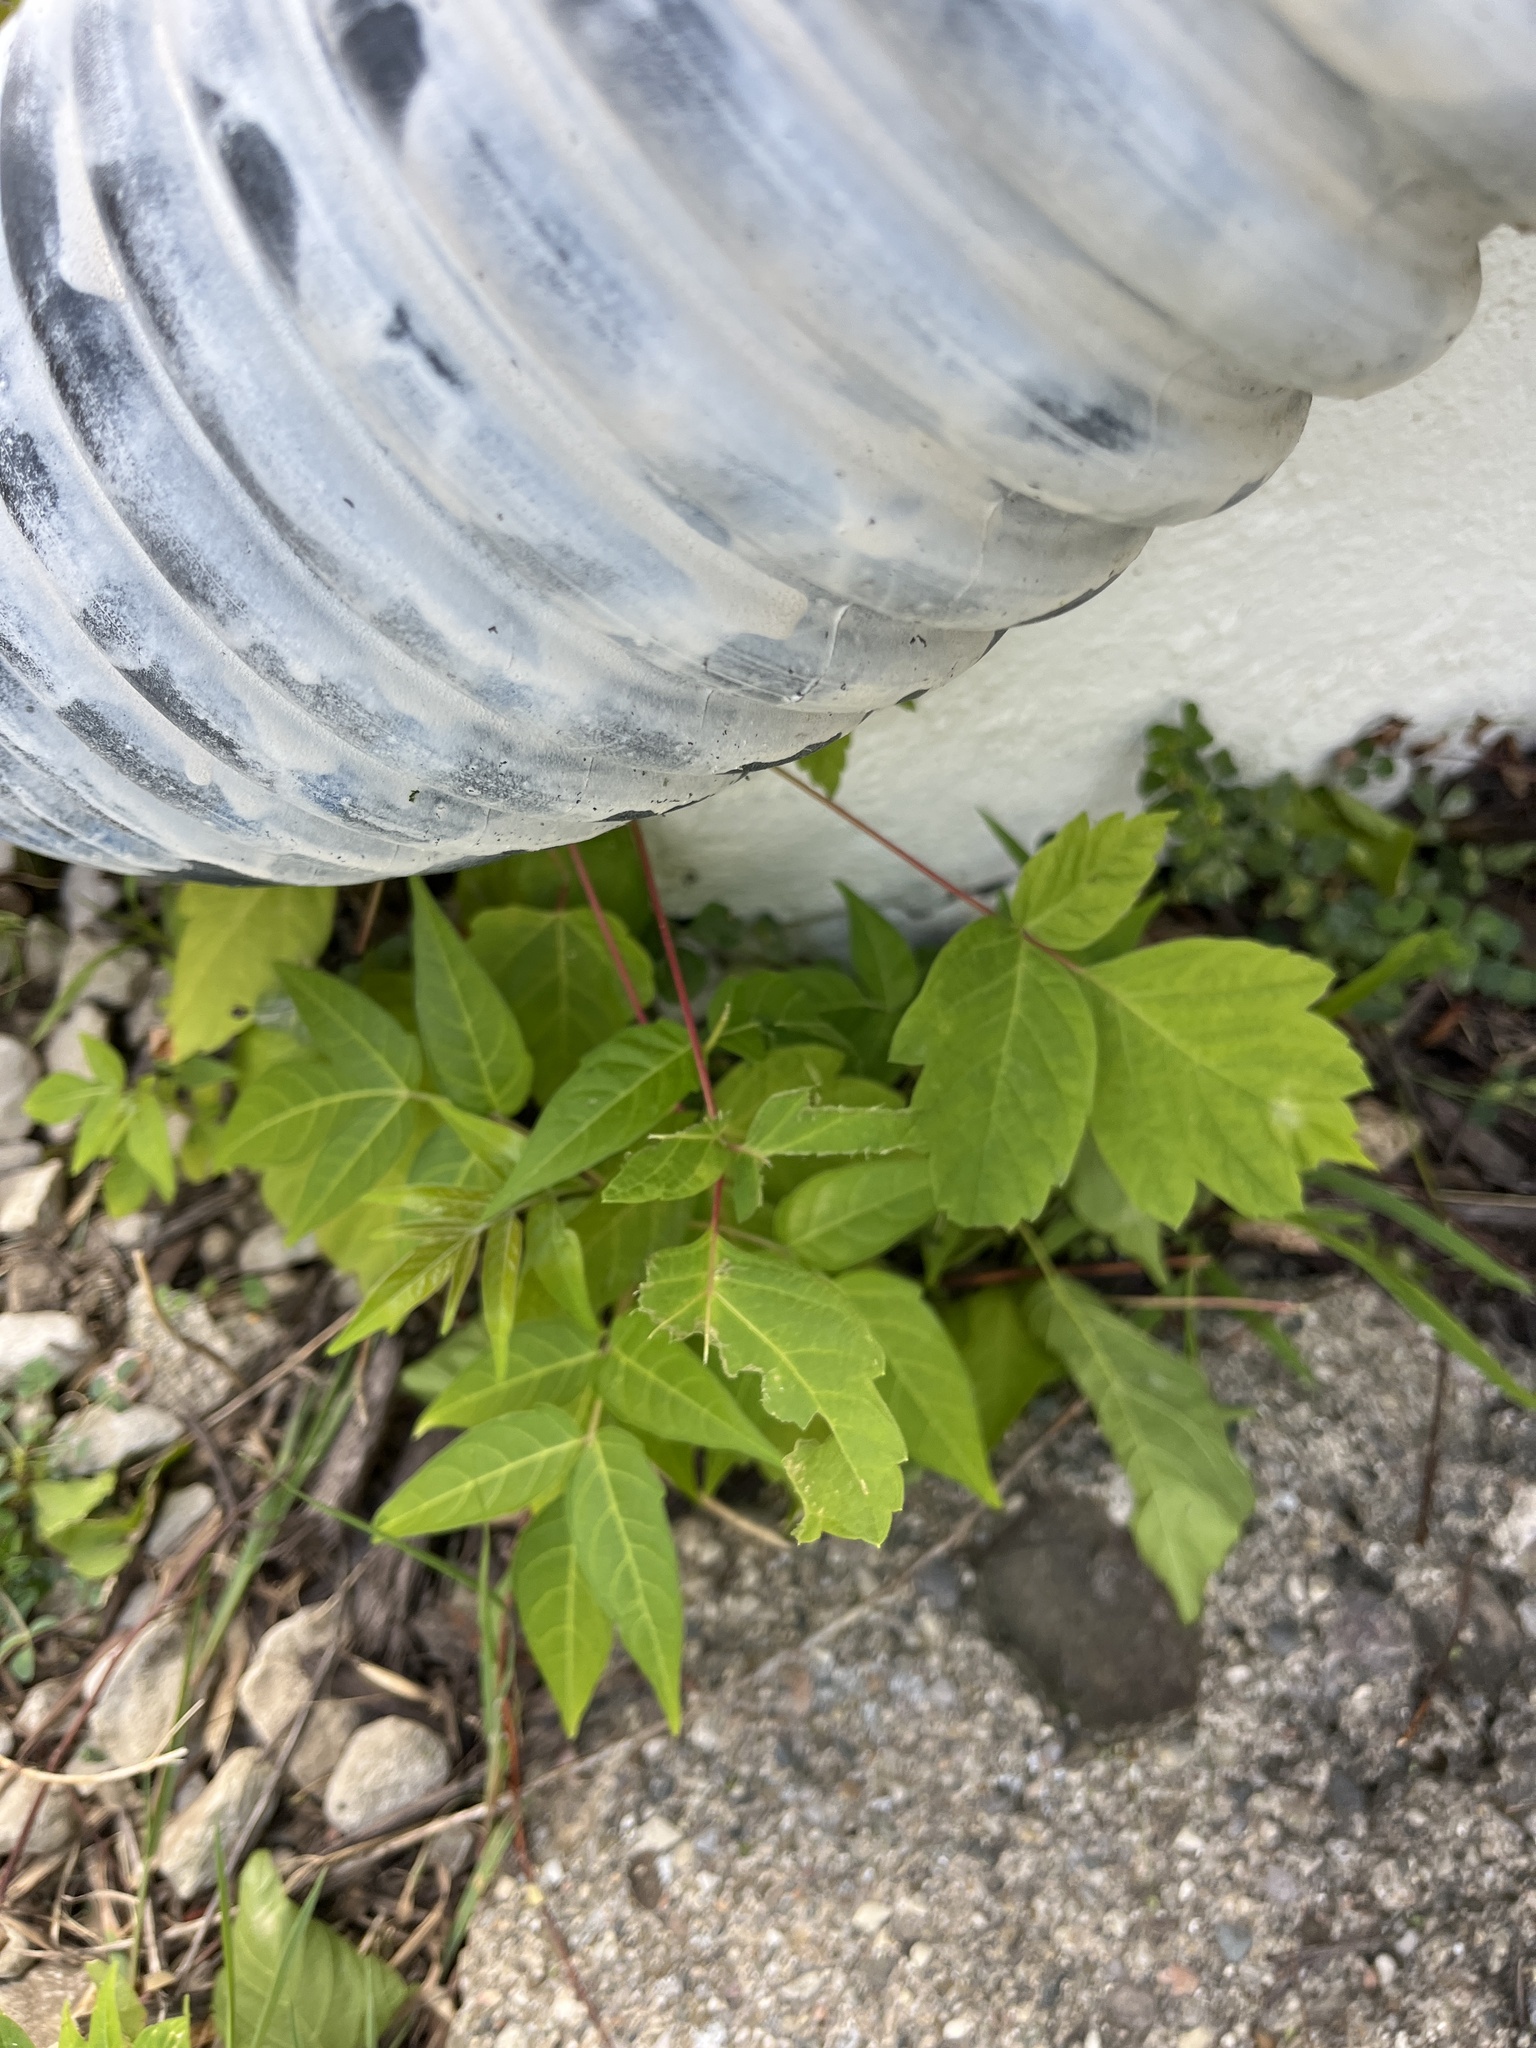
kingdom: Plantae
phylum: Tracheophyta
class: Magnoliopsida
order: Sapindales
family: Simaroubaceae
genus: Ailanthus
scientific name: Ailanthus altissima
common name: Tree-of-heaven
